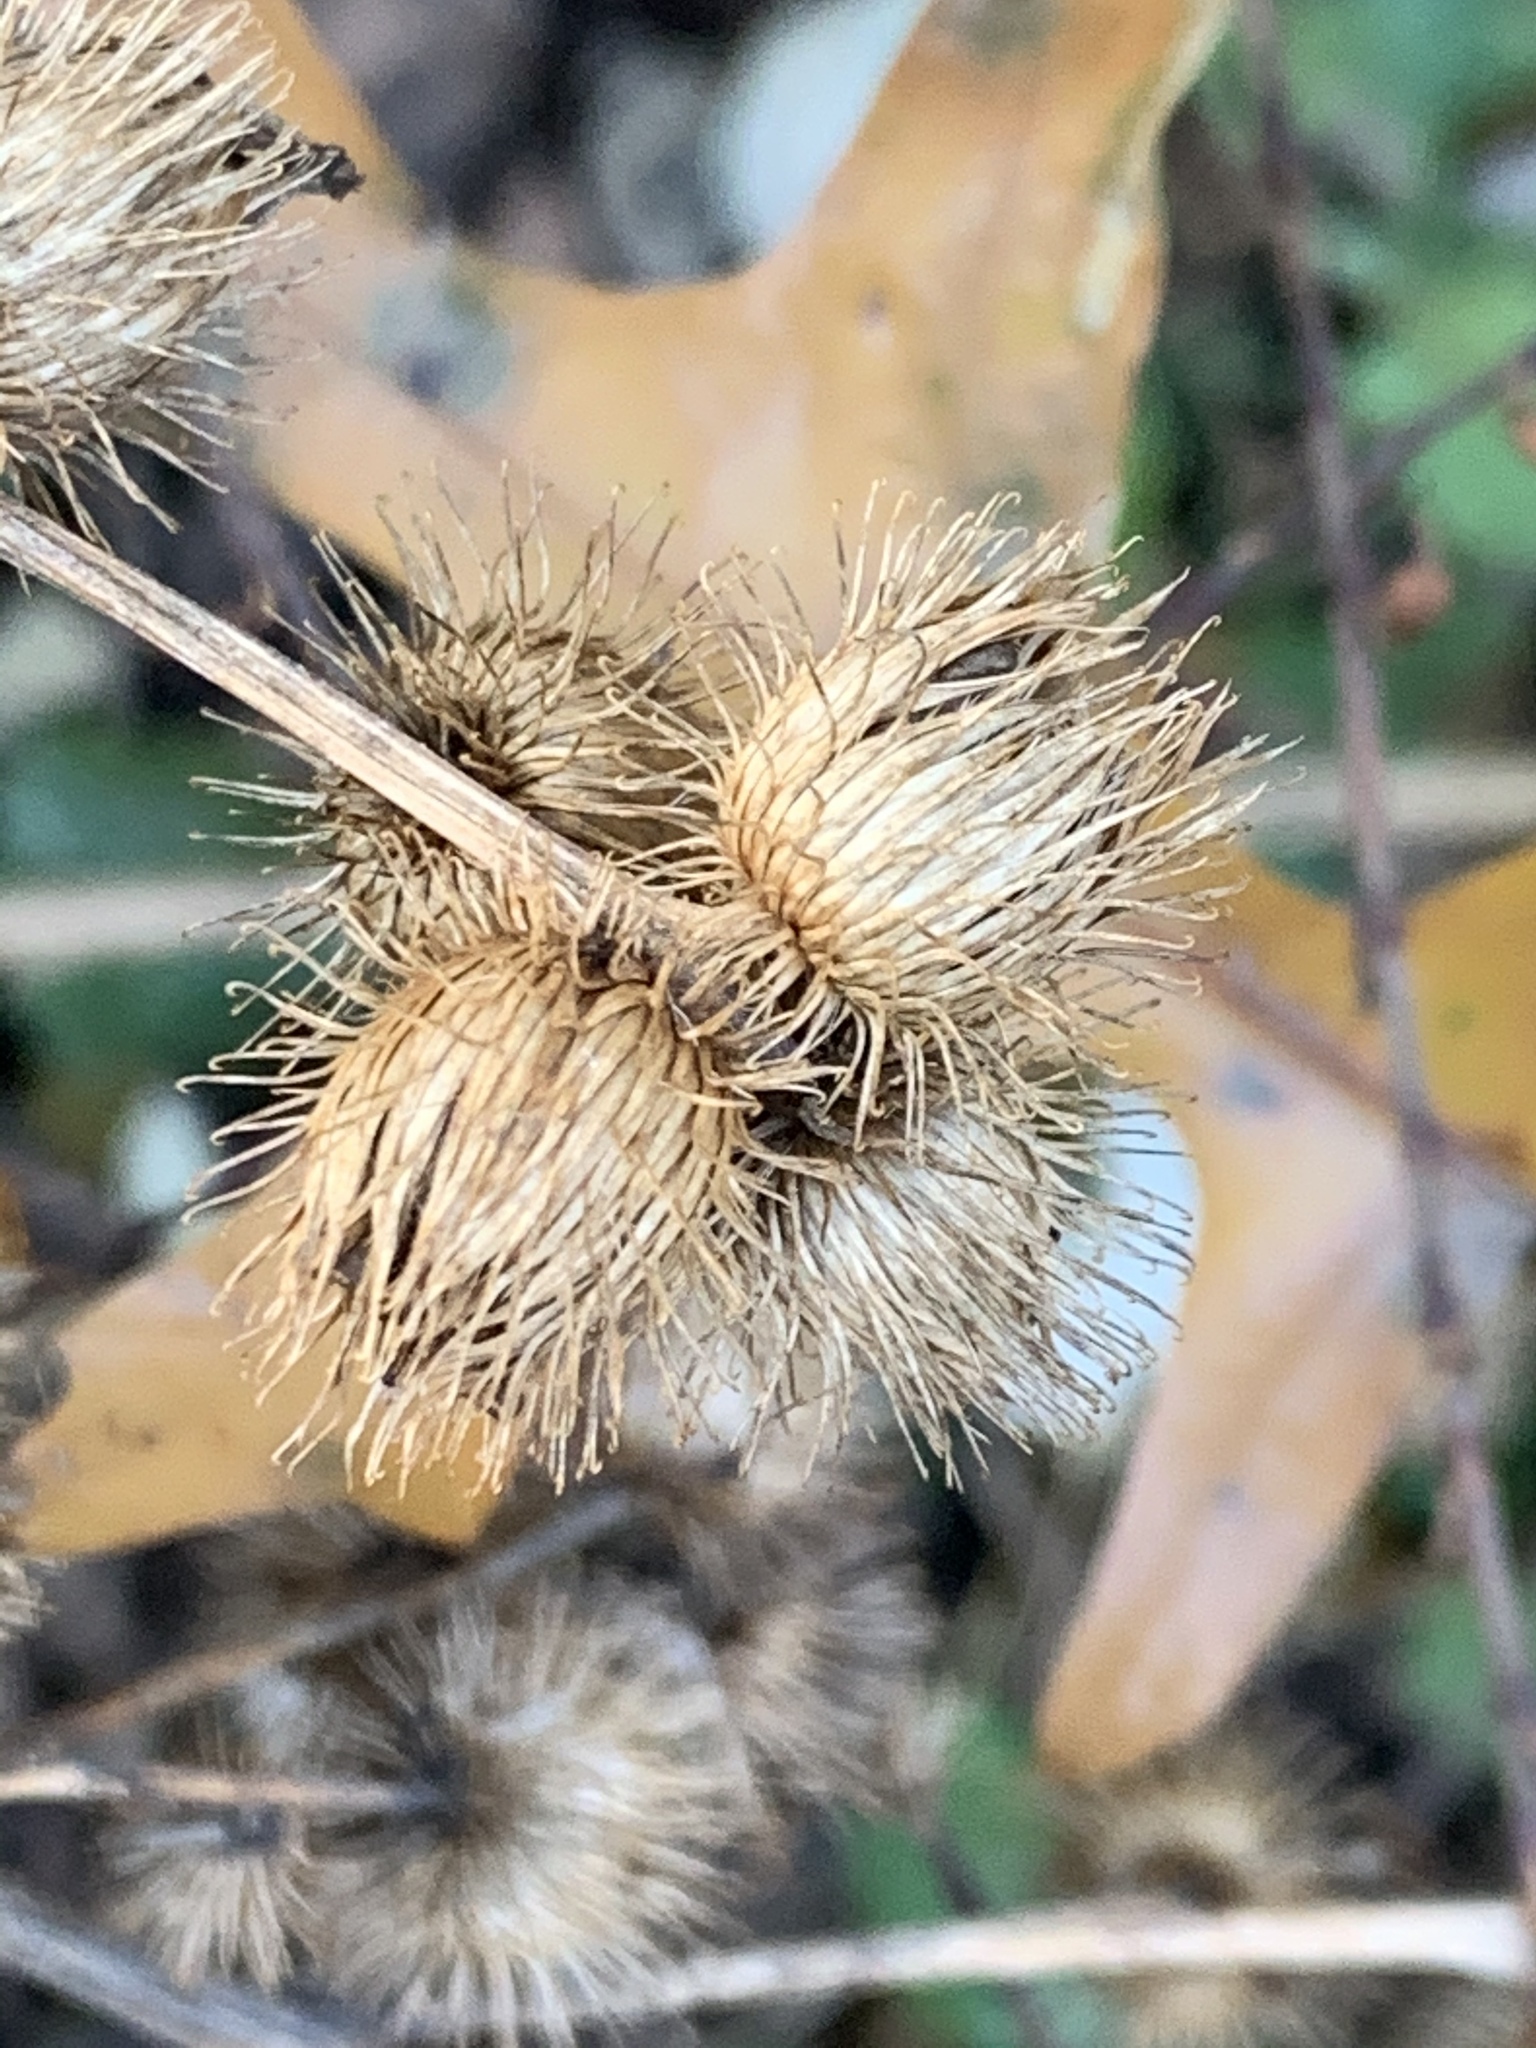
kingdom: Plantae
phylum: Tracheophyta
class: Magnoliopsida
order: Asterales
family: Asteraceae
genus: Arctium
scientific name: Arctium minus
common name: Lesser burdock
